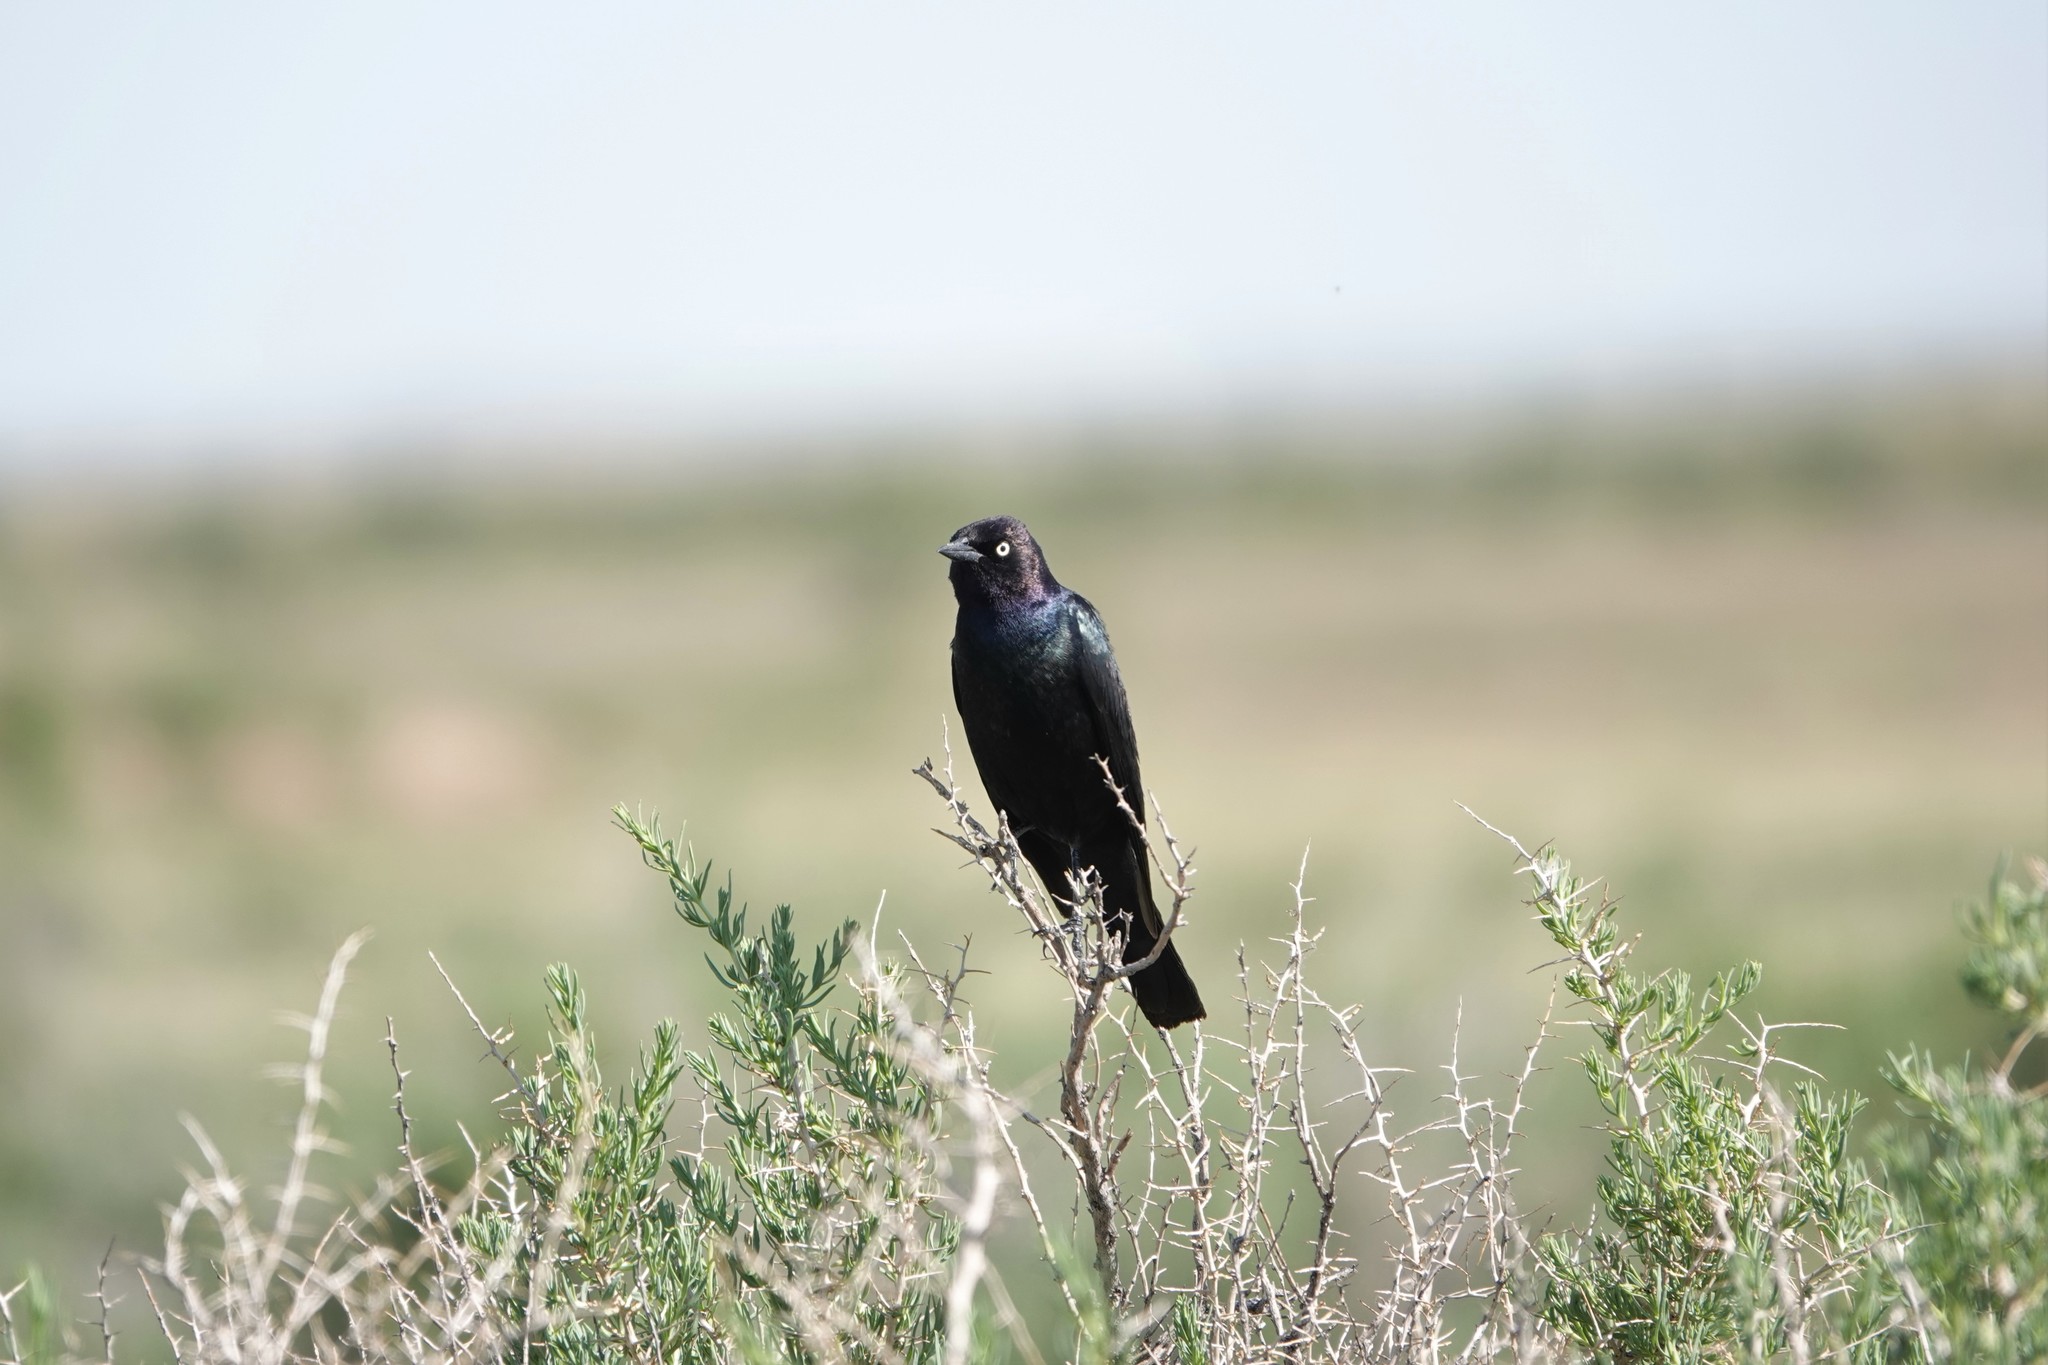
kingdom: Animalia
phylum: Chordata
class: Aves
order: Passeriformes
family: Icteridae
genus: Euphagus
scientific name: Euphagus cyanocephalus
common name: Brewer's blackbird
